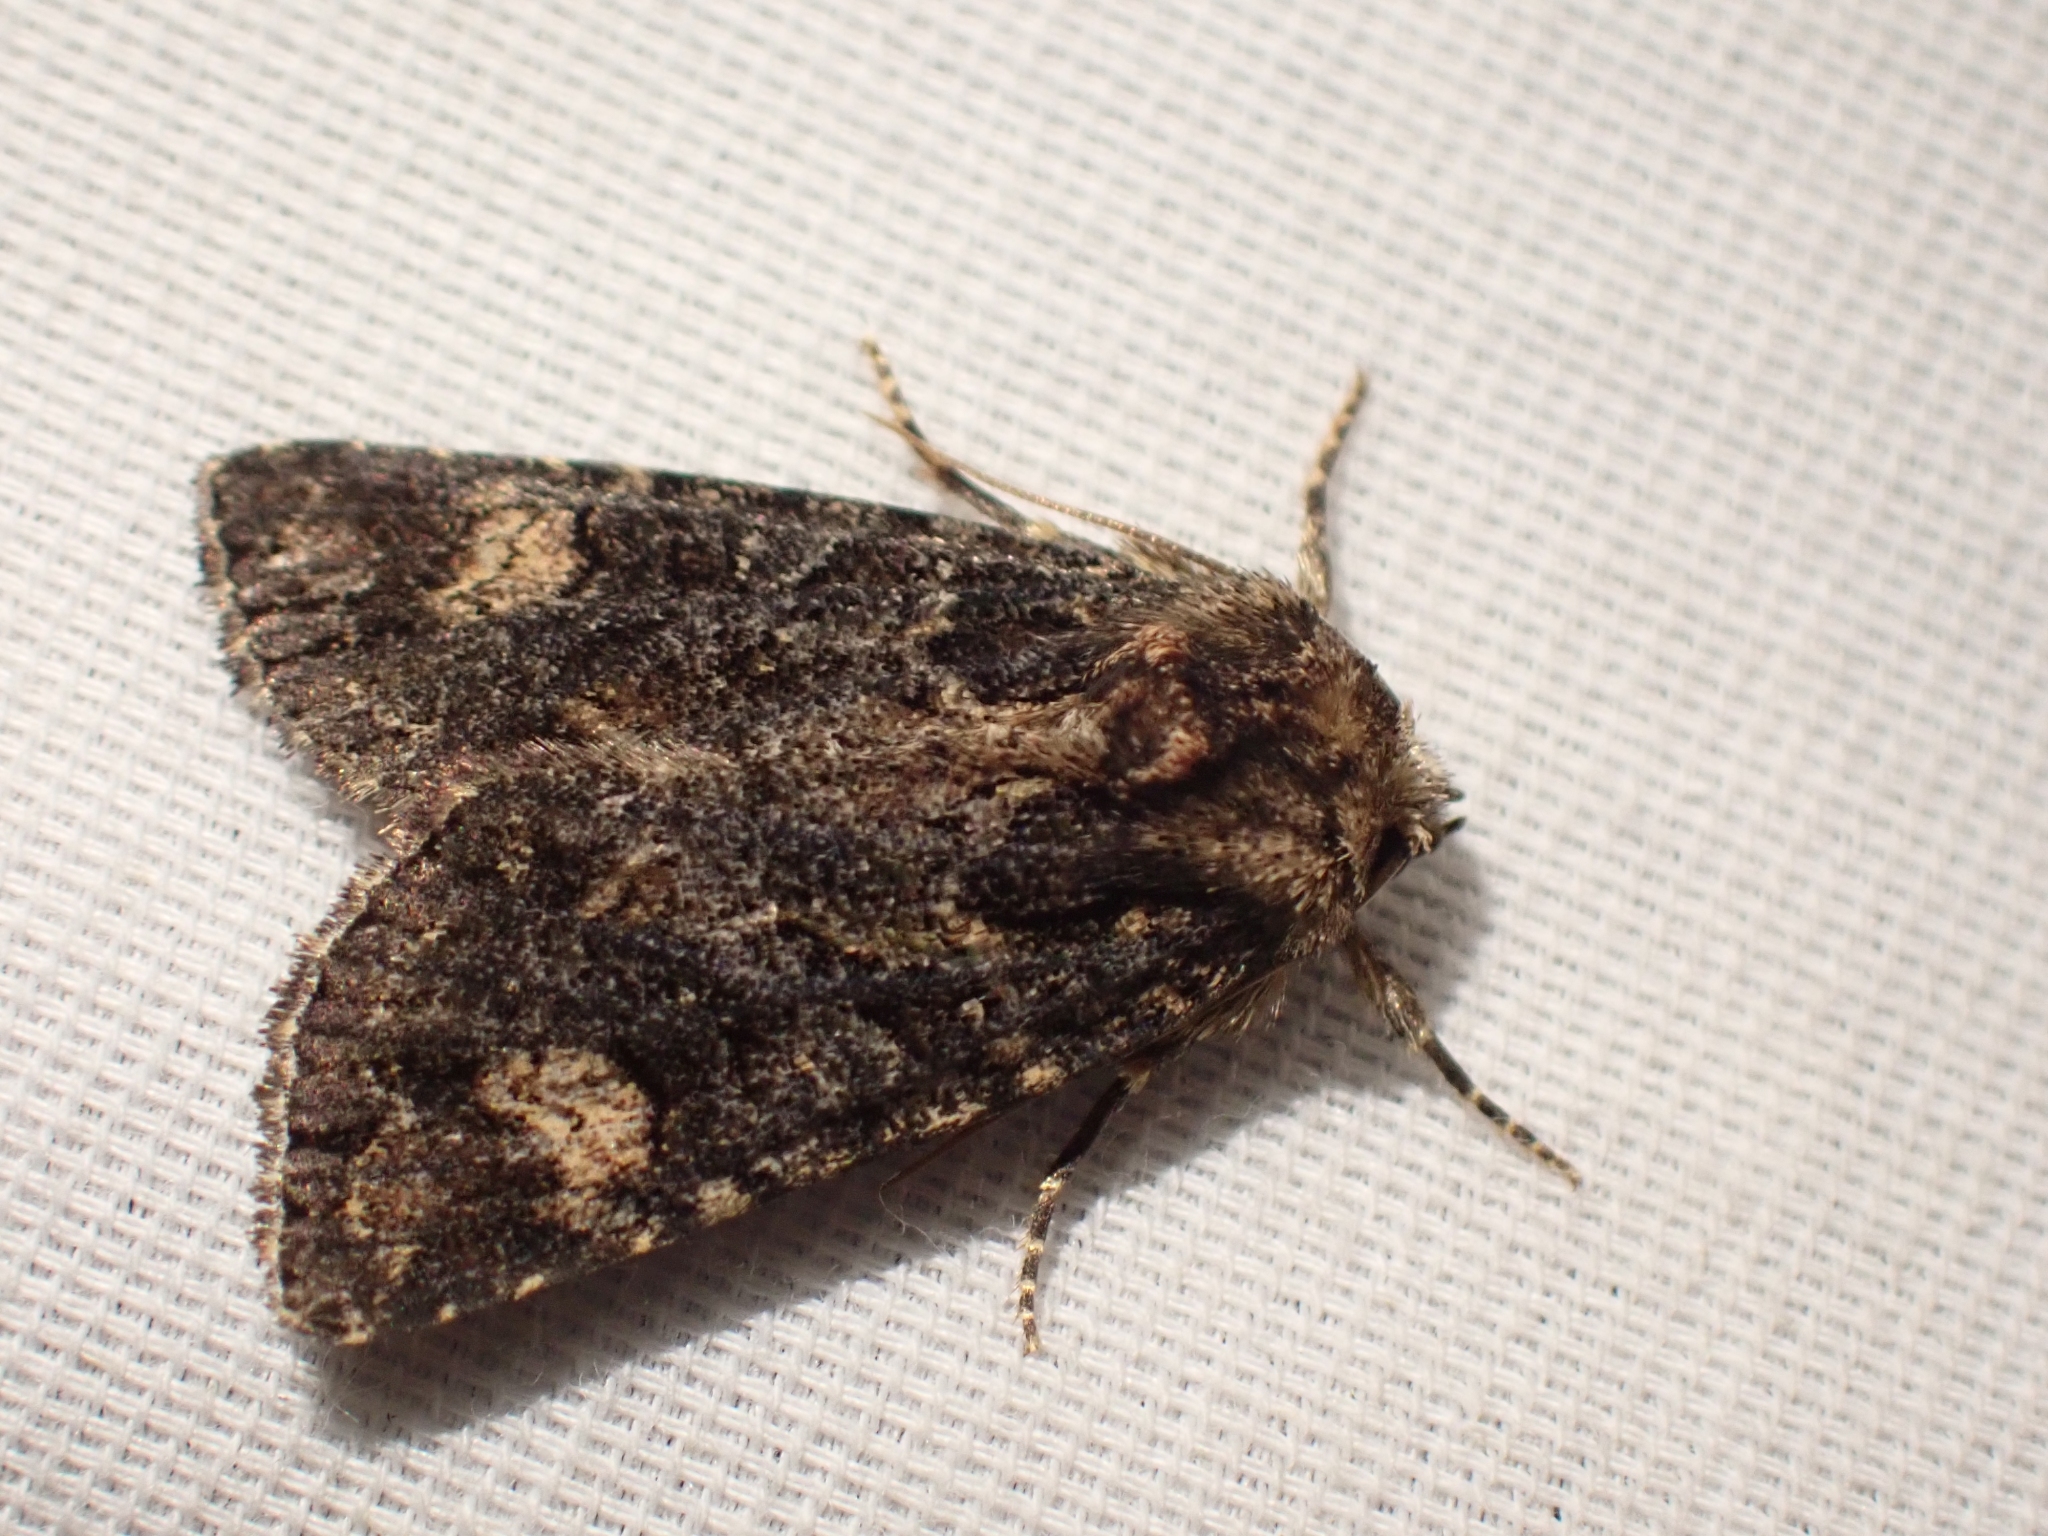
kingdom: Animalia
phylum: Arthropoda
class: Insecta
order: Lepidoptera
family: Noctuidae
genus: Aseptis
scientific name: Aseptis binotata
